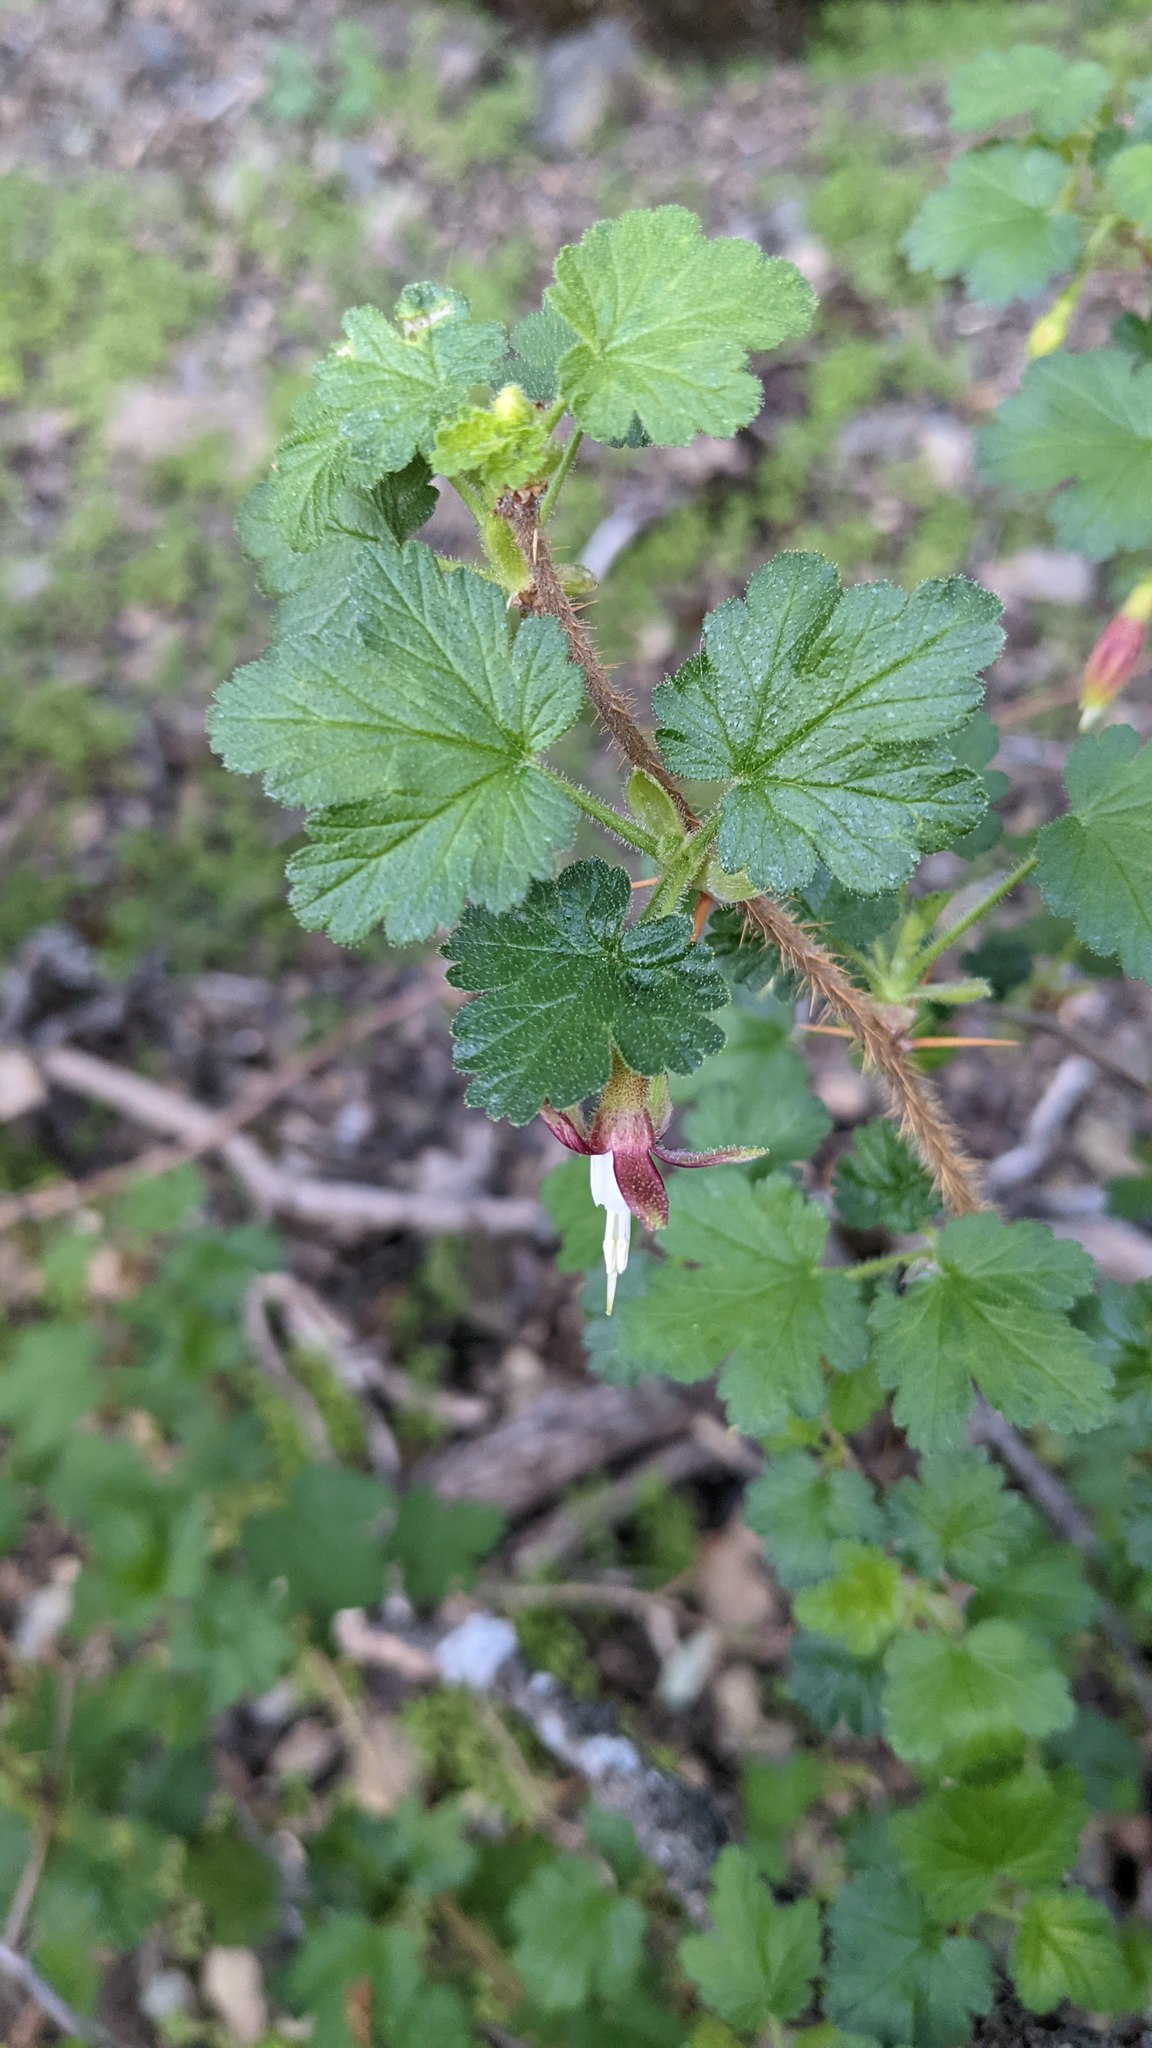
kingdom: Plantae
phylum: Tracheophyta
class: Magnoliopsida
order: Saxifragales
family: Grossulariaceae
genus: Ribes
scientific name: Ribes menziesii
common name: Canyon gooseberry
